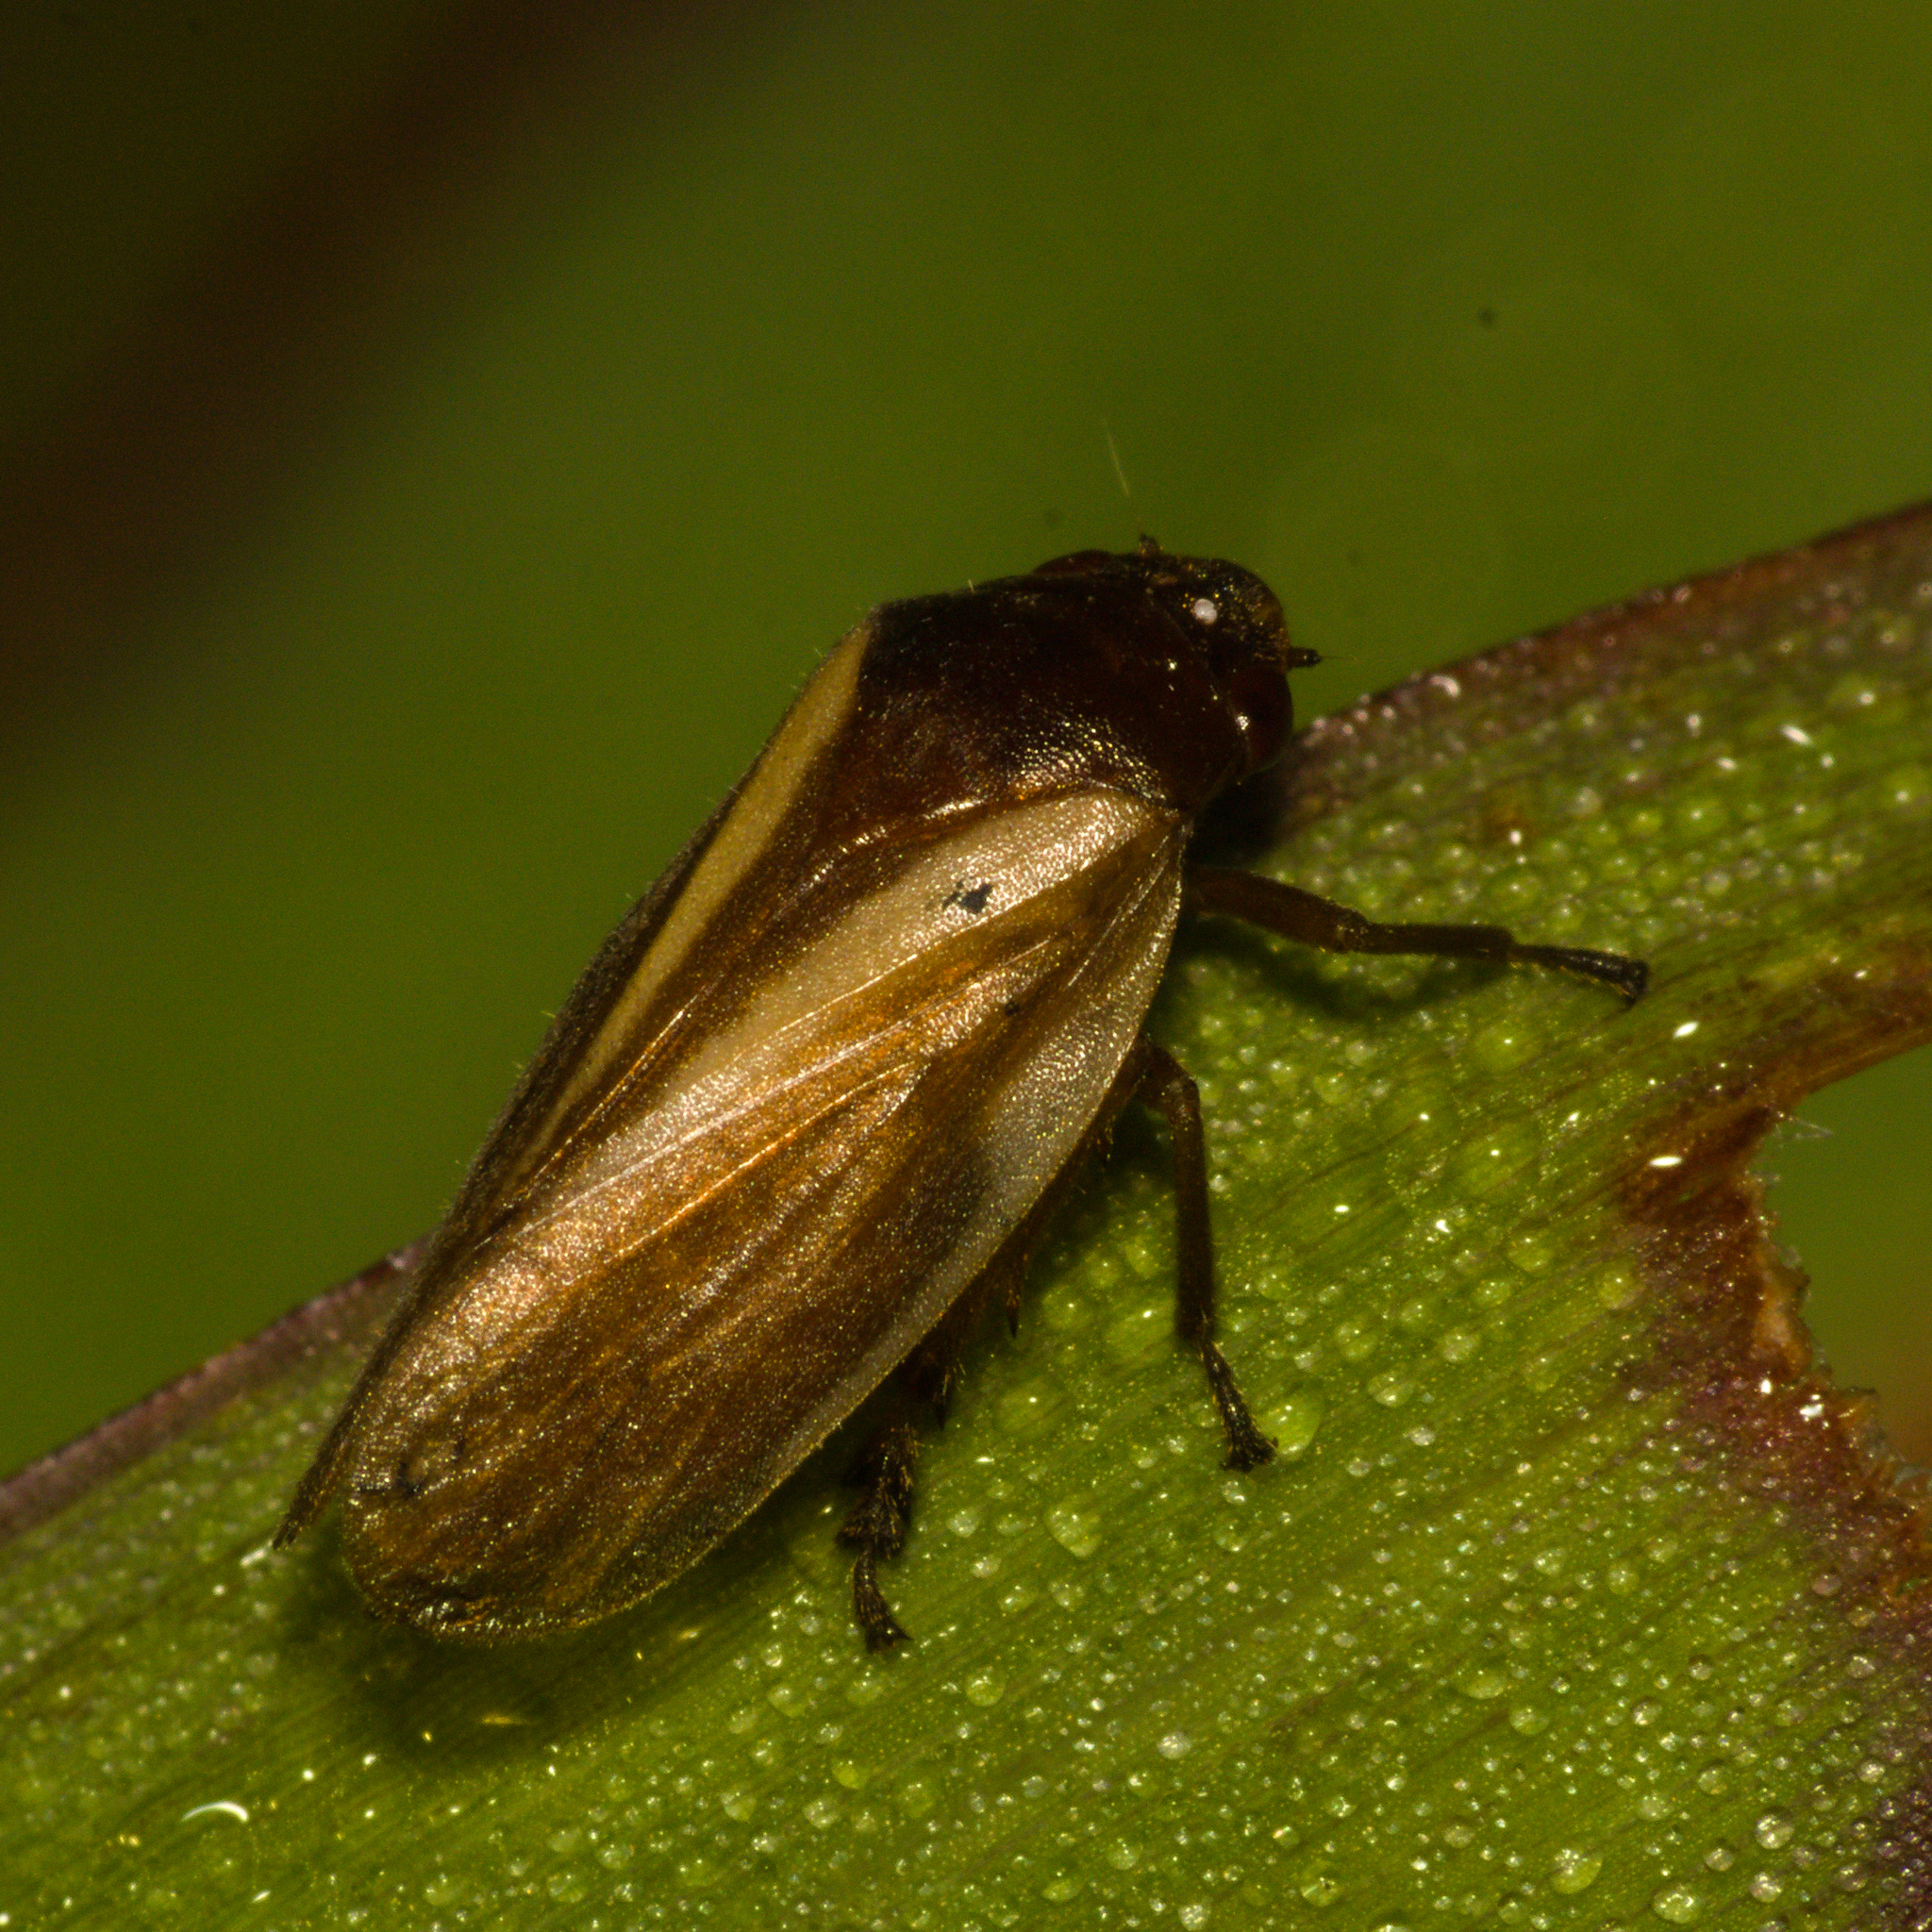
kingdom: Animalia
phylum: Arthropoda
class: Insecta
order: Hemiptera
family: Cercopidae
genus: Deois
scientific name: Deois mourei
